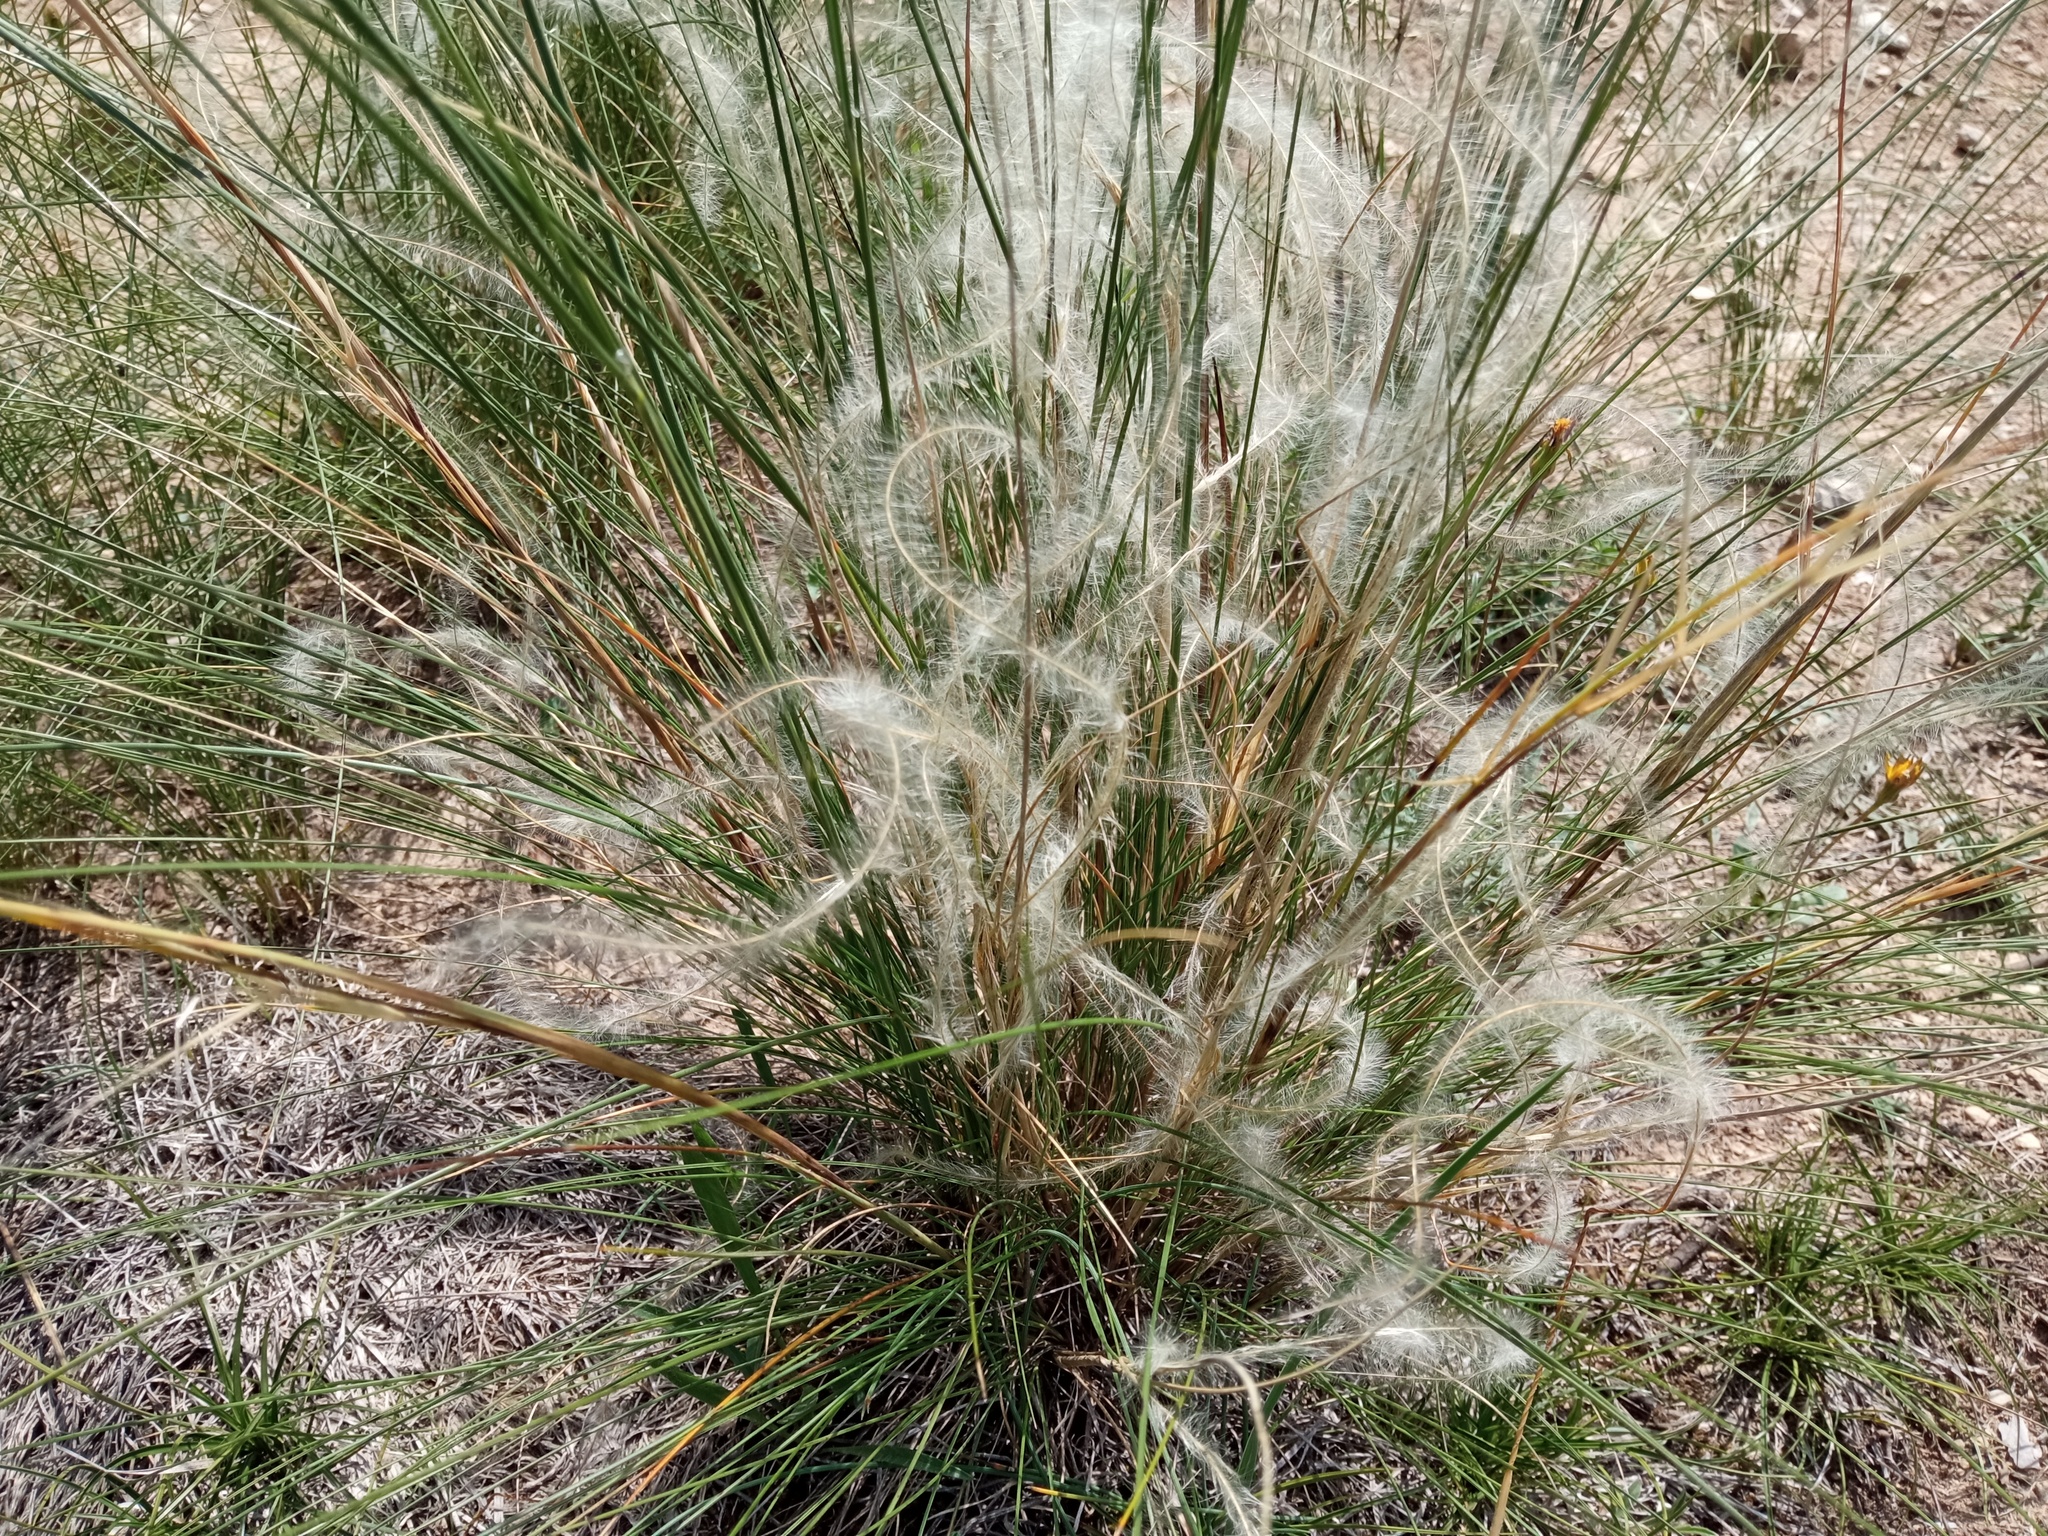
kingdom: Plantae
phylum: Tracheophyta
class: Liliopsida
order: Poales
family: Poaceae
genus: Stipa
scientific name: Stipa iberica
